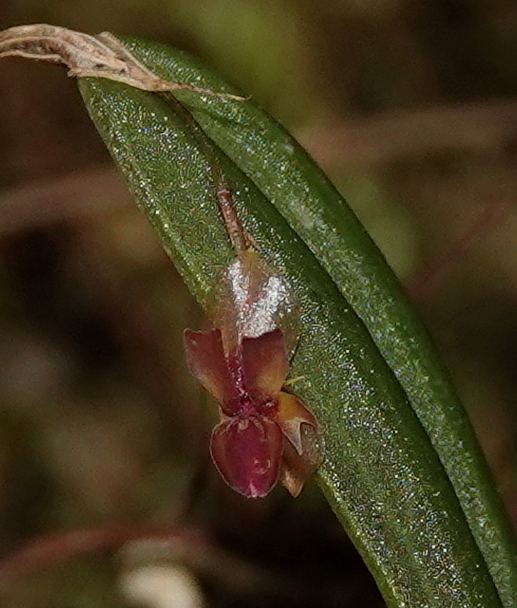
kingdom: Plantae
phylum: Tracheophyta
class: Liliopsida
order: Asparagales
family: Orchidaceae
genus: Lepanthes
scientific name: Lepanthes mucronata
